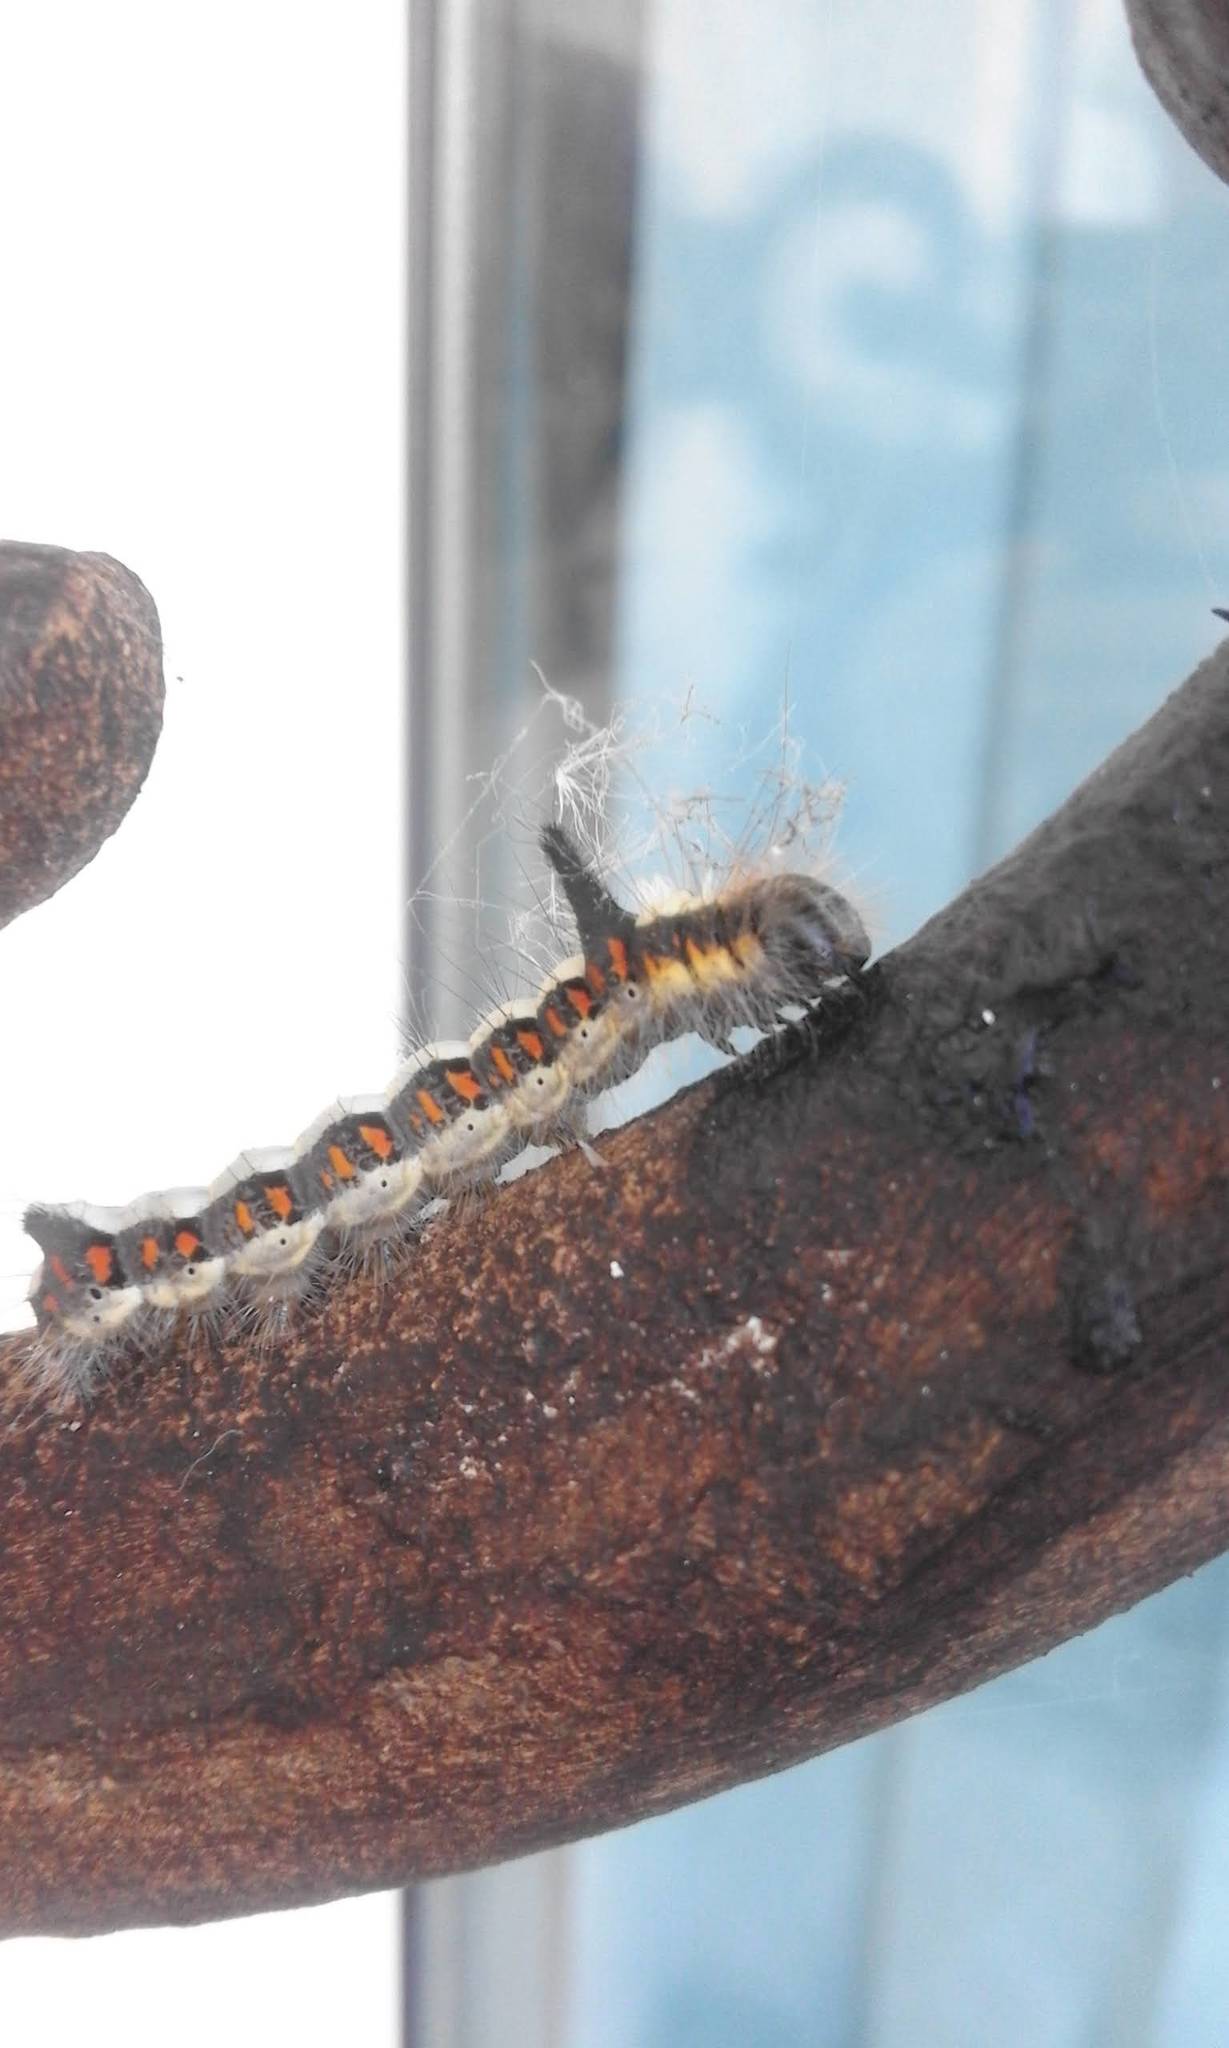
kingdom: Animalia
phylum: Arthropoda
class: Insecta
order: Lepidoptera
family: Noctuidae
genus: Acronicta
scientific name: Acronicta psi
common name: Grey dagger
